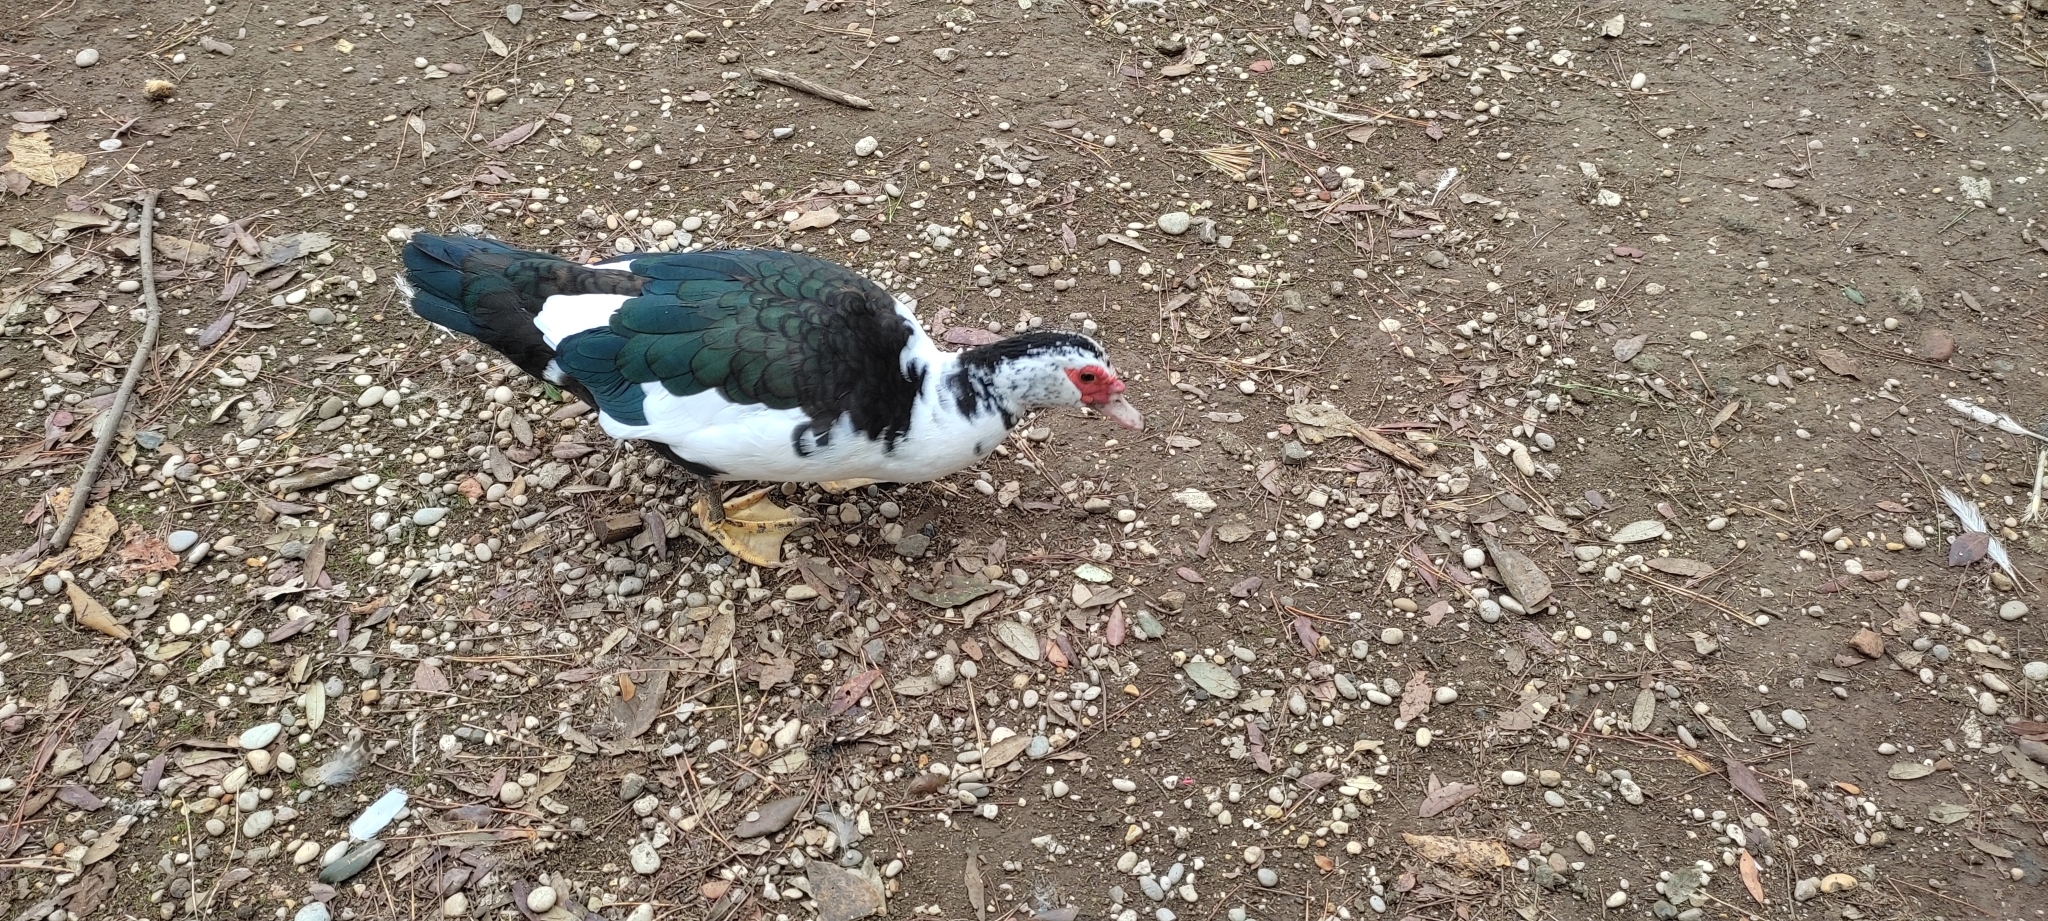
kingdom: Animalia
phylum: Chordata
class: Aves
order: Anseriformes
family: Anatidae
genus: Cairina
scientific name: Cairina moschata
